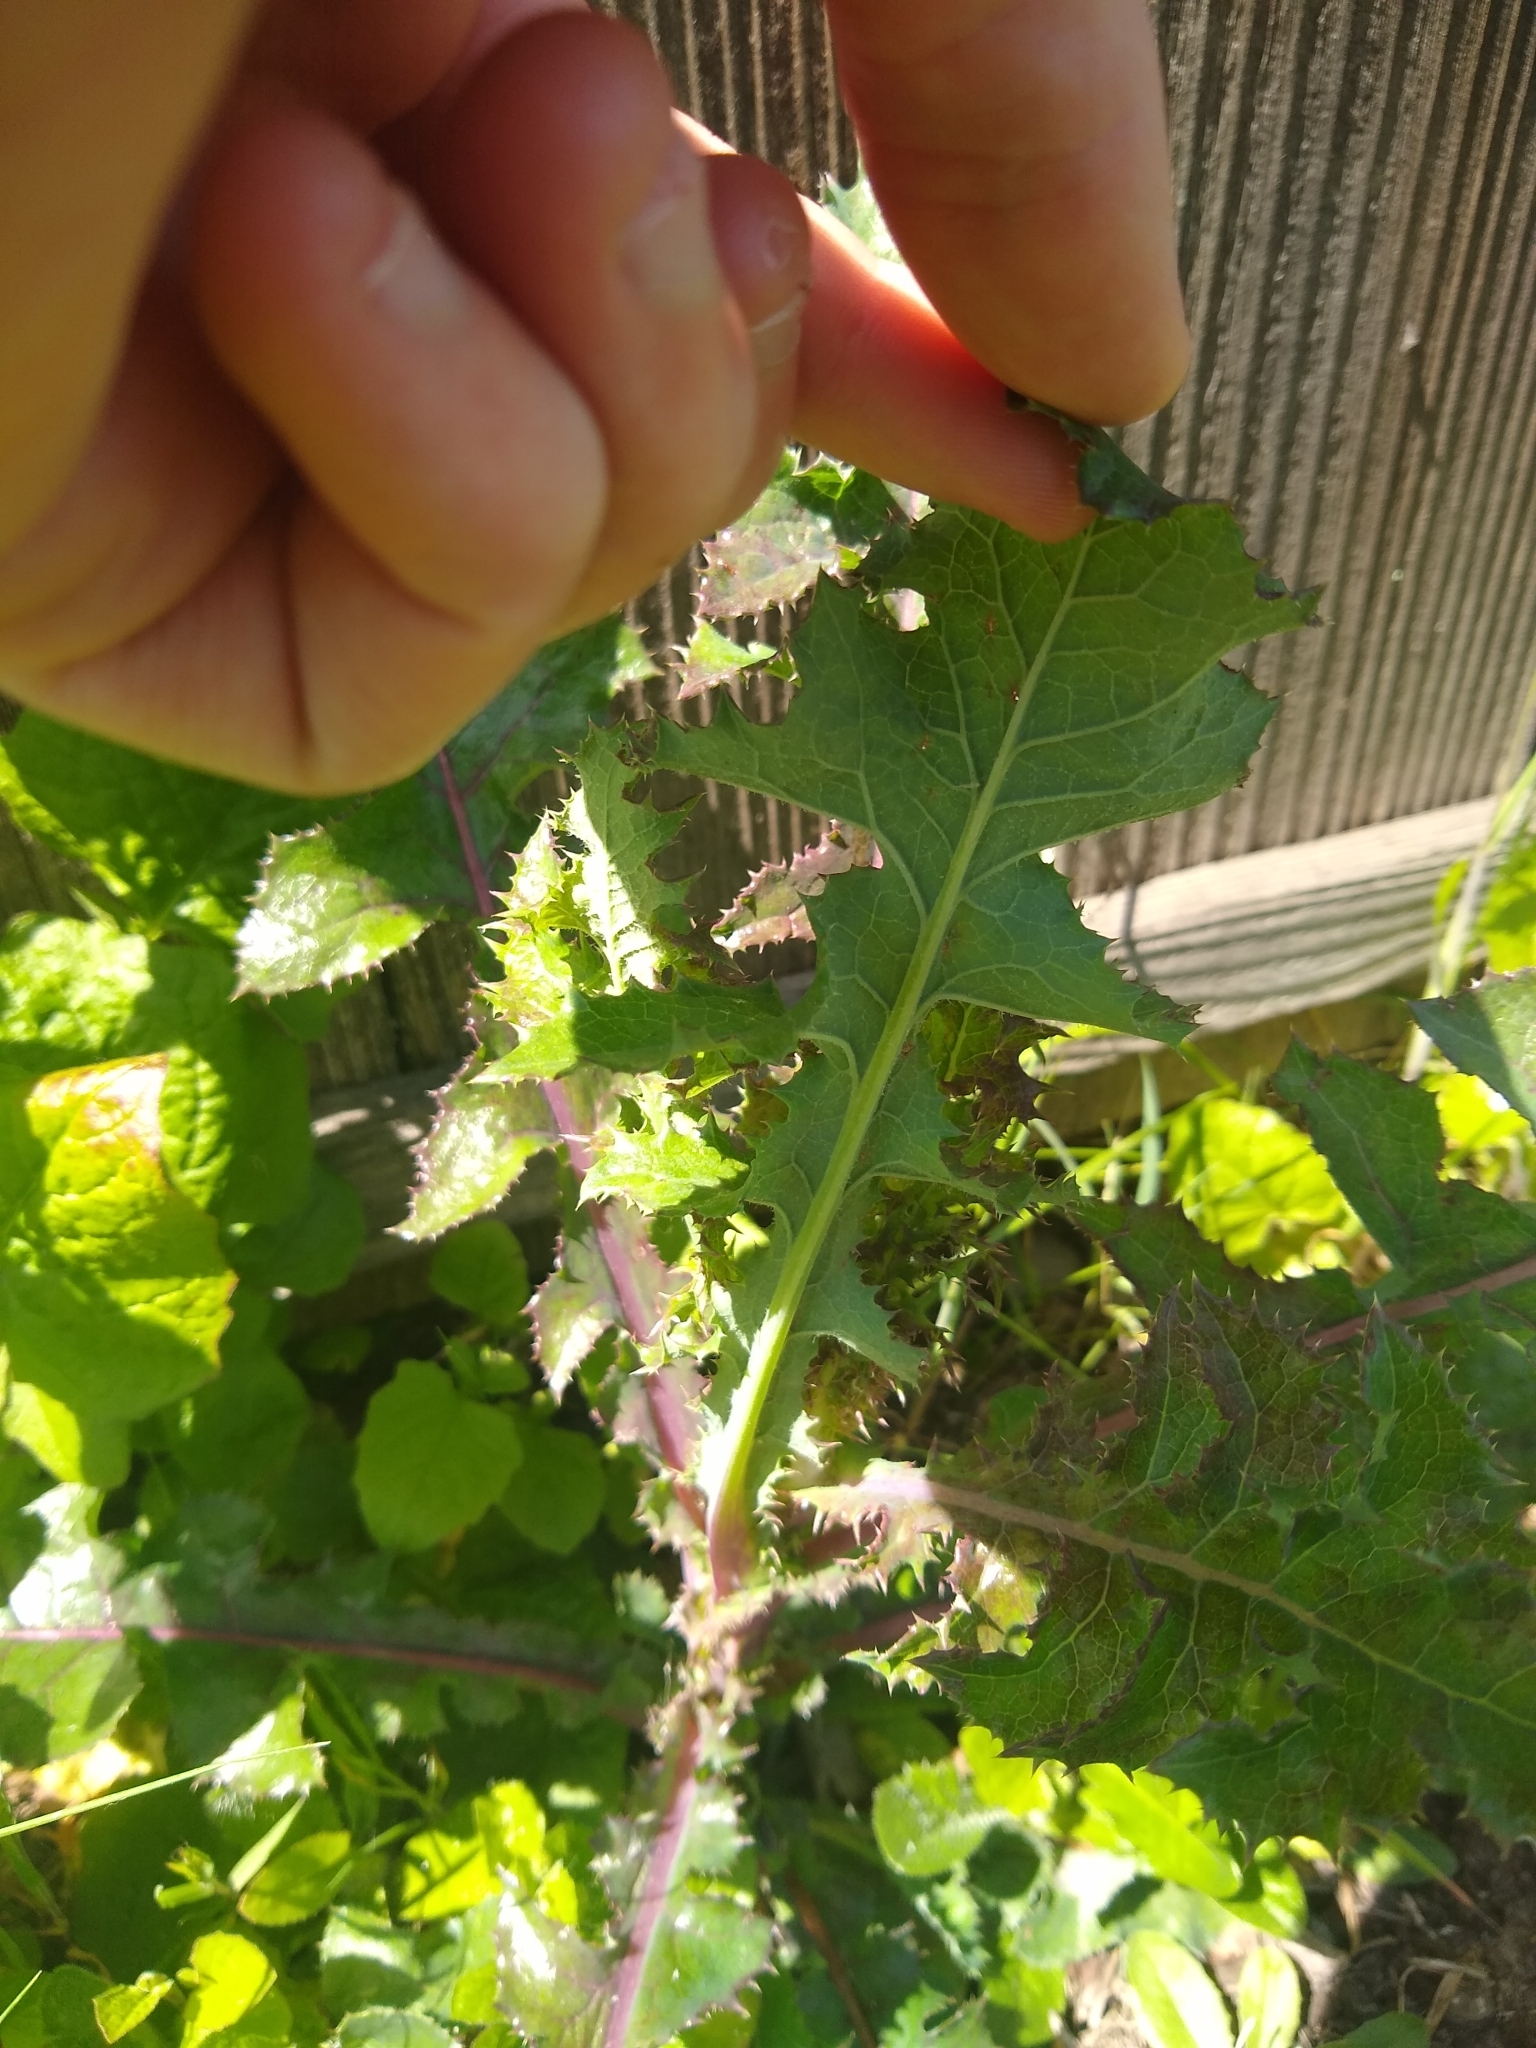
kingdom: Plantae
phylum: Tracheophyta
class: Magnoliopsida
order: Asterales
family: Asteraceae
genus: Sonchus
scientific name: Sonchus asper
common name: Prickly sow-thistle
